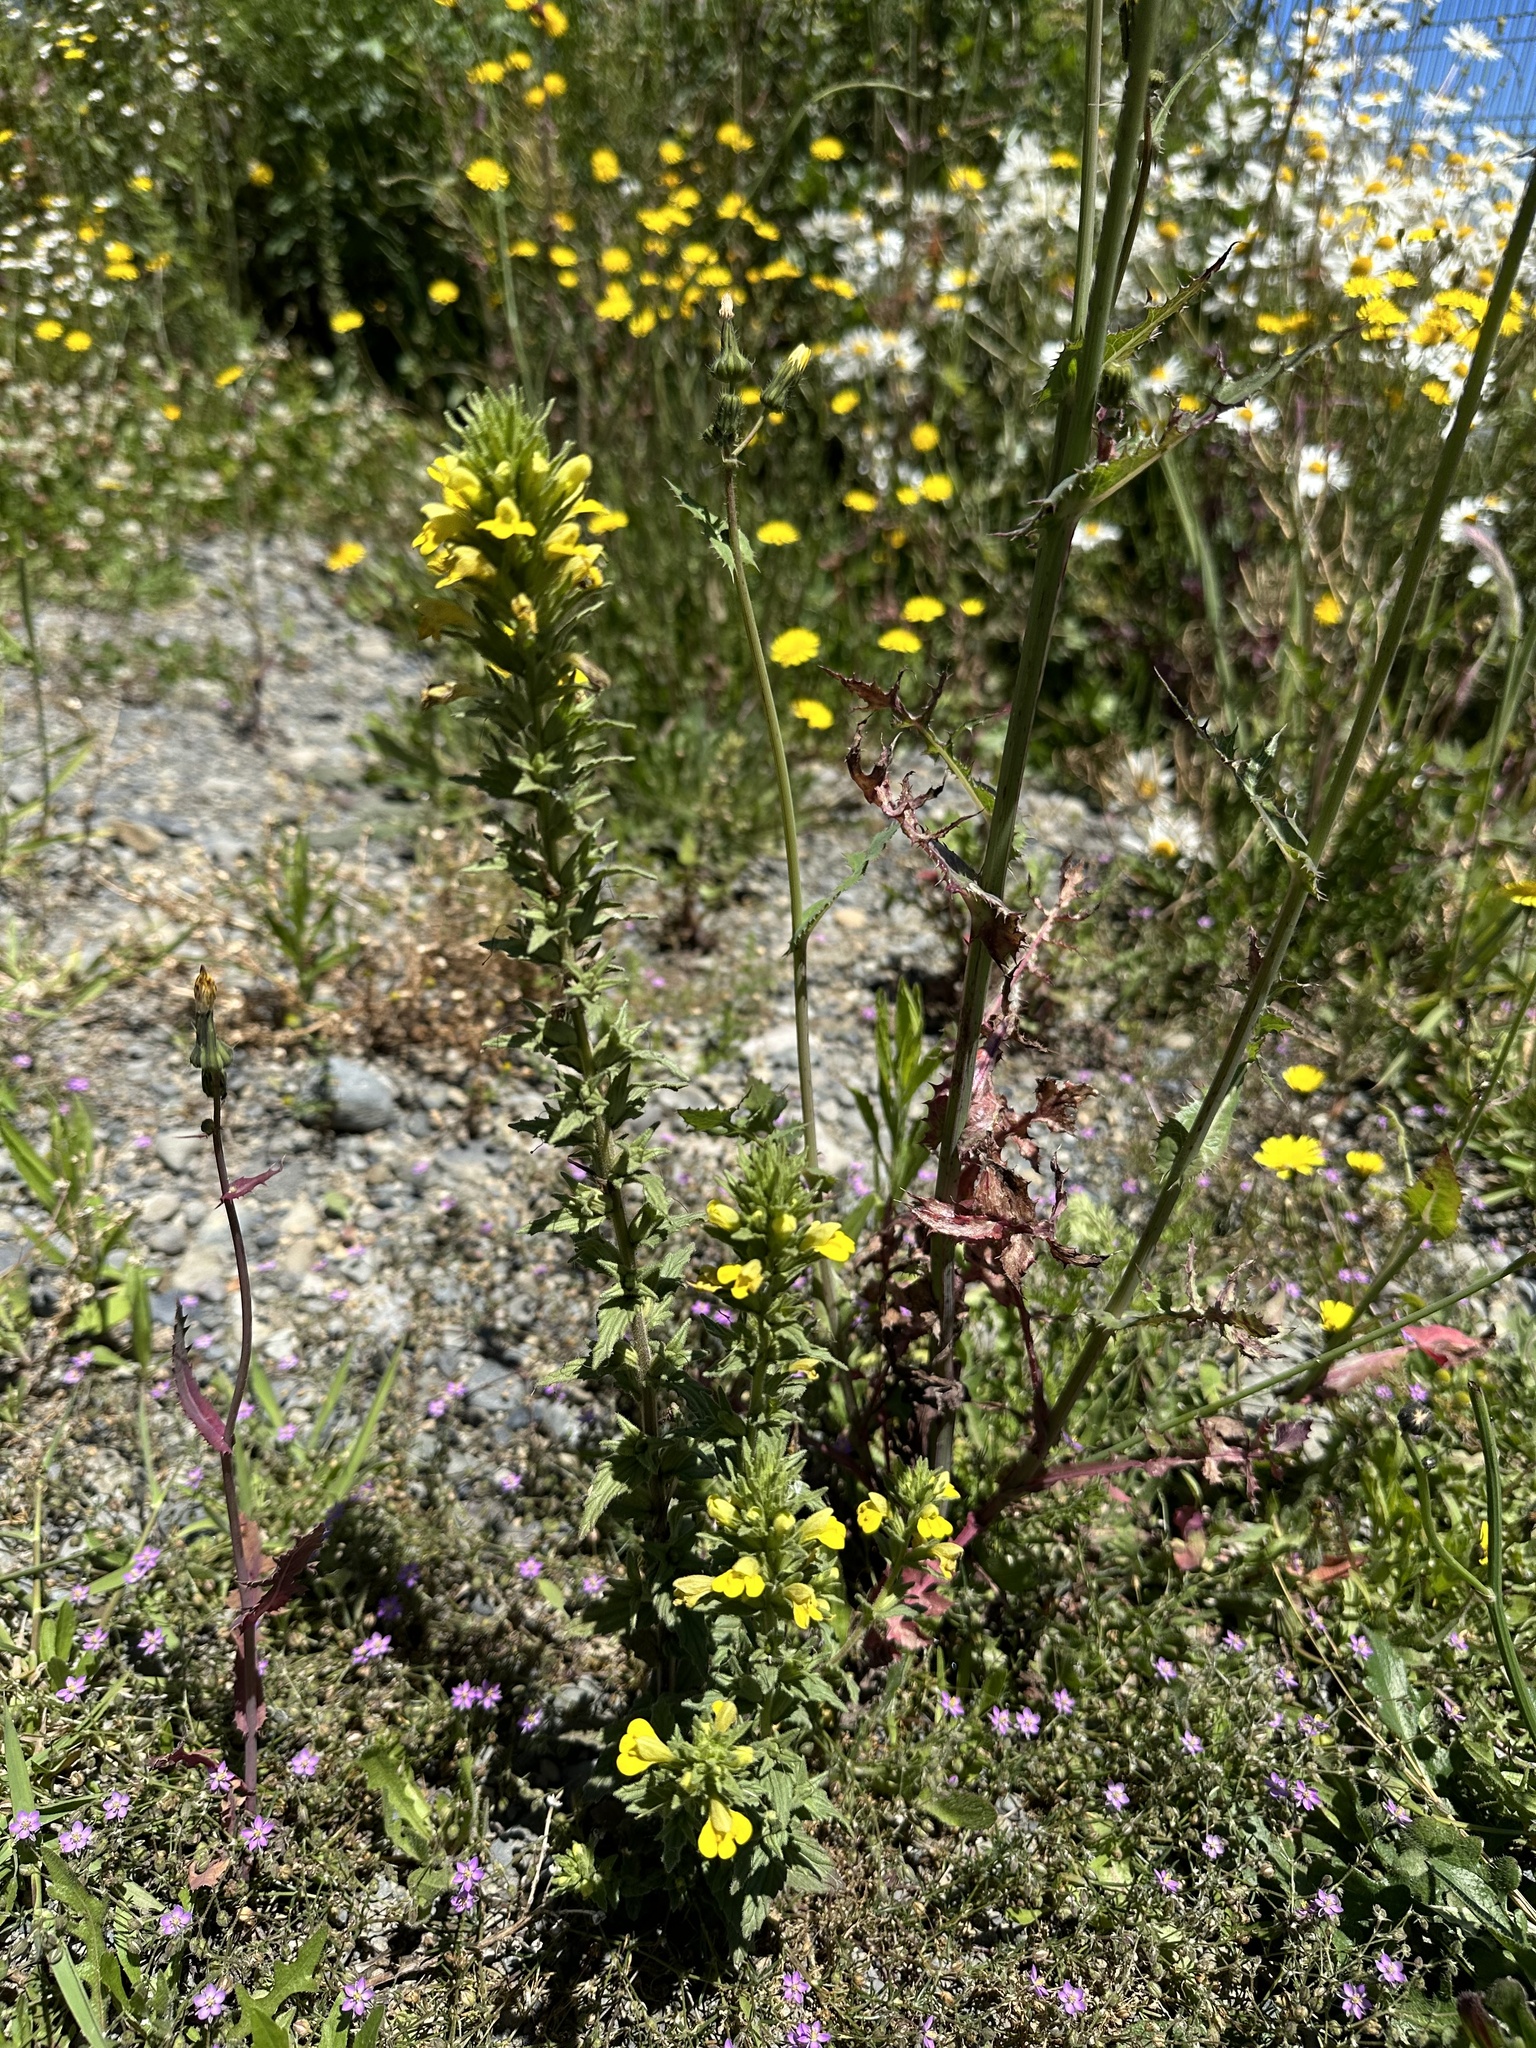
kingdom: Plantae
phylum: Tracheophyta
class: Magnoliopsida
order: Lamiales
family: Orobanchaceae
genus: Bellardia
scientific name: Bellardia viscosa
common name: Sticky parentucellia
